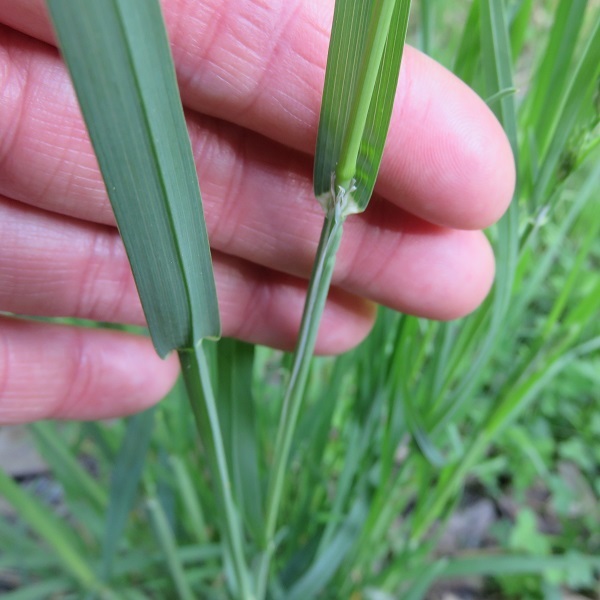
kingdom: Plantae
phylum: Tracheophyta
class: Liliopsida
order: Poales
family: Poaceae
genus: Dactylis
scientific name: Dactylis glomerata
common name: Orchardgrass
